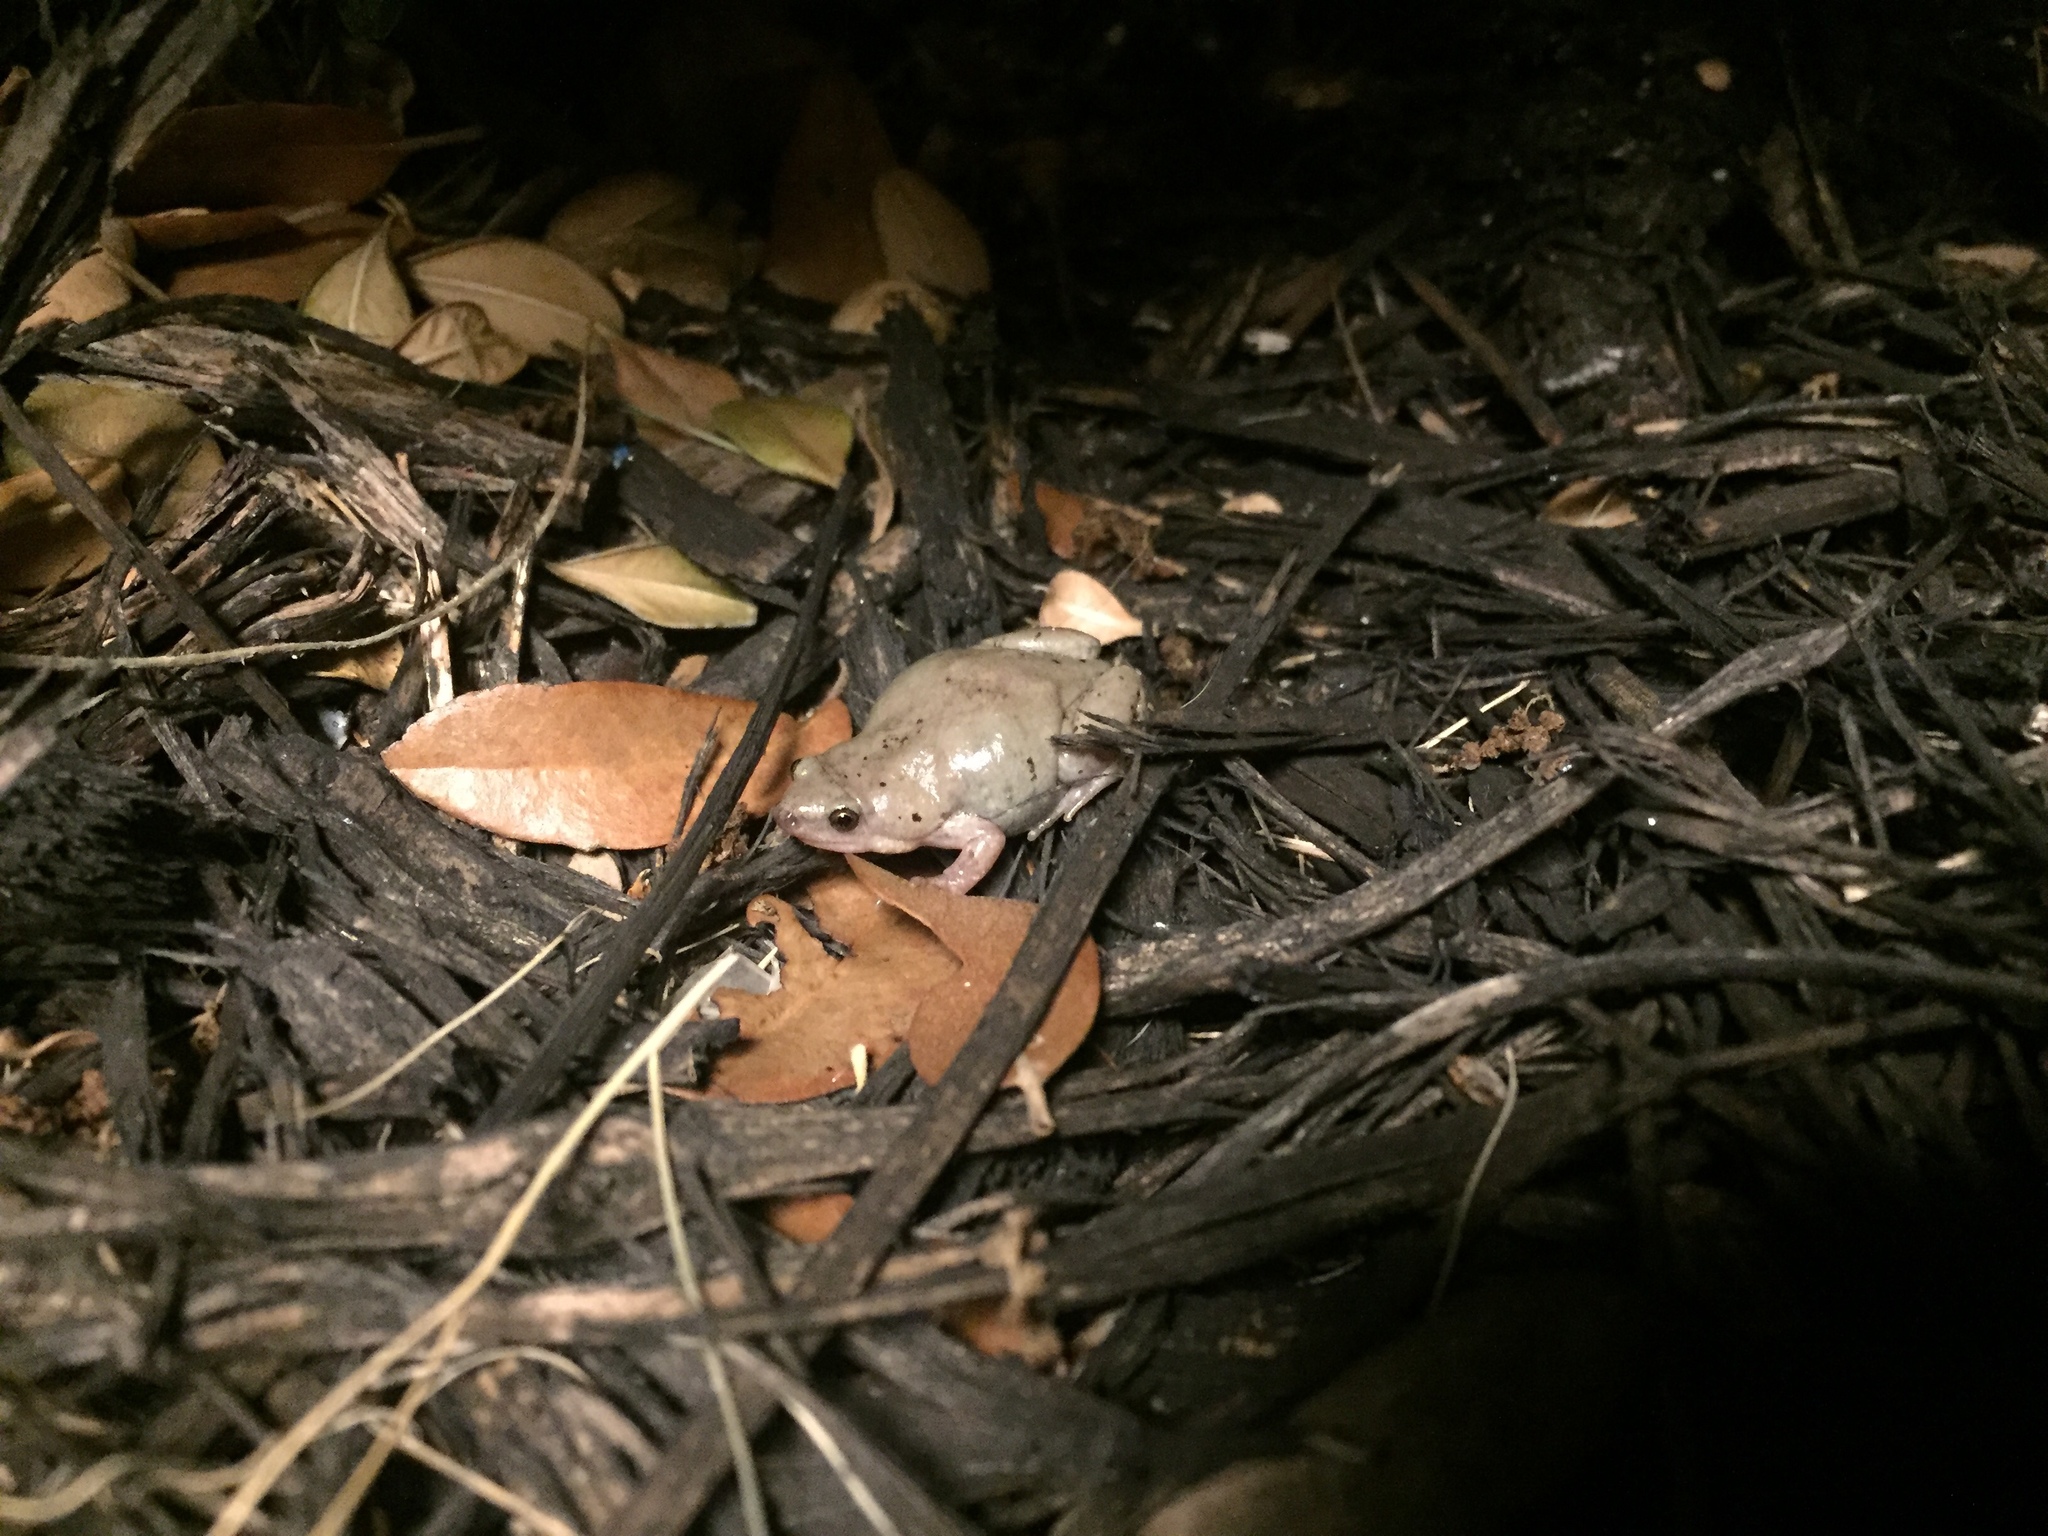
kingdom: Animalia
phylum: Chordata
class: Amphibia
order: Anura
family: Microhylidae
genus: Gastrophryne
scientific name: Gastrophryne olivacea
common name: Great plains narrow-mouthed toad
